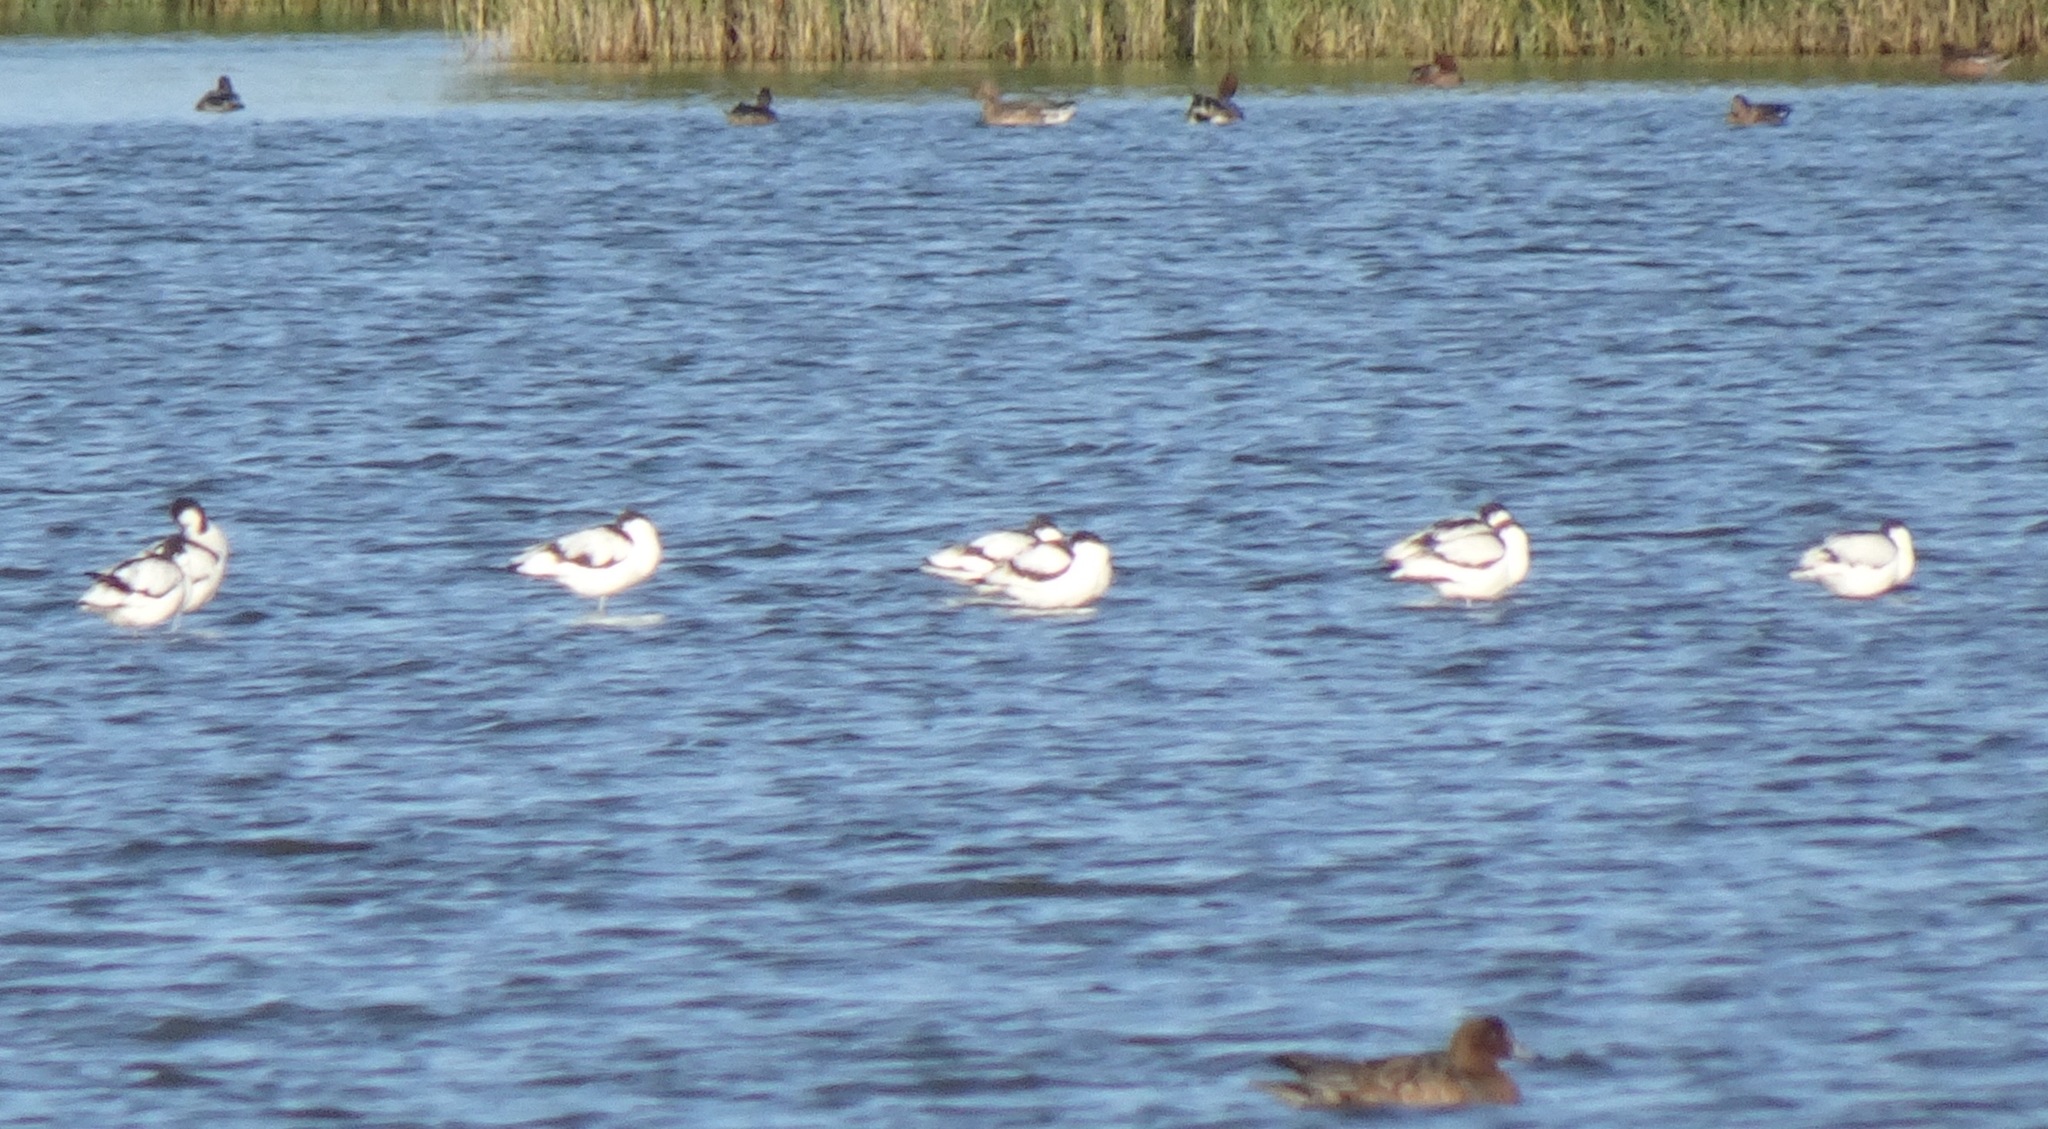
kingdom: Animalia
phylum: Chordata
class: Aves
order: Charadriiformes
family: Recurvirostridae
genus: Recurvirostra
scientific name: Recurvirostra avosetta
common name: Pied avocet
